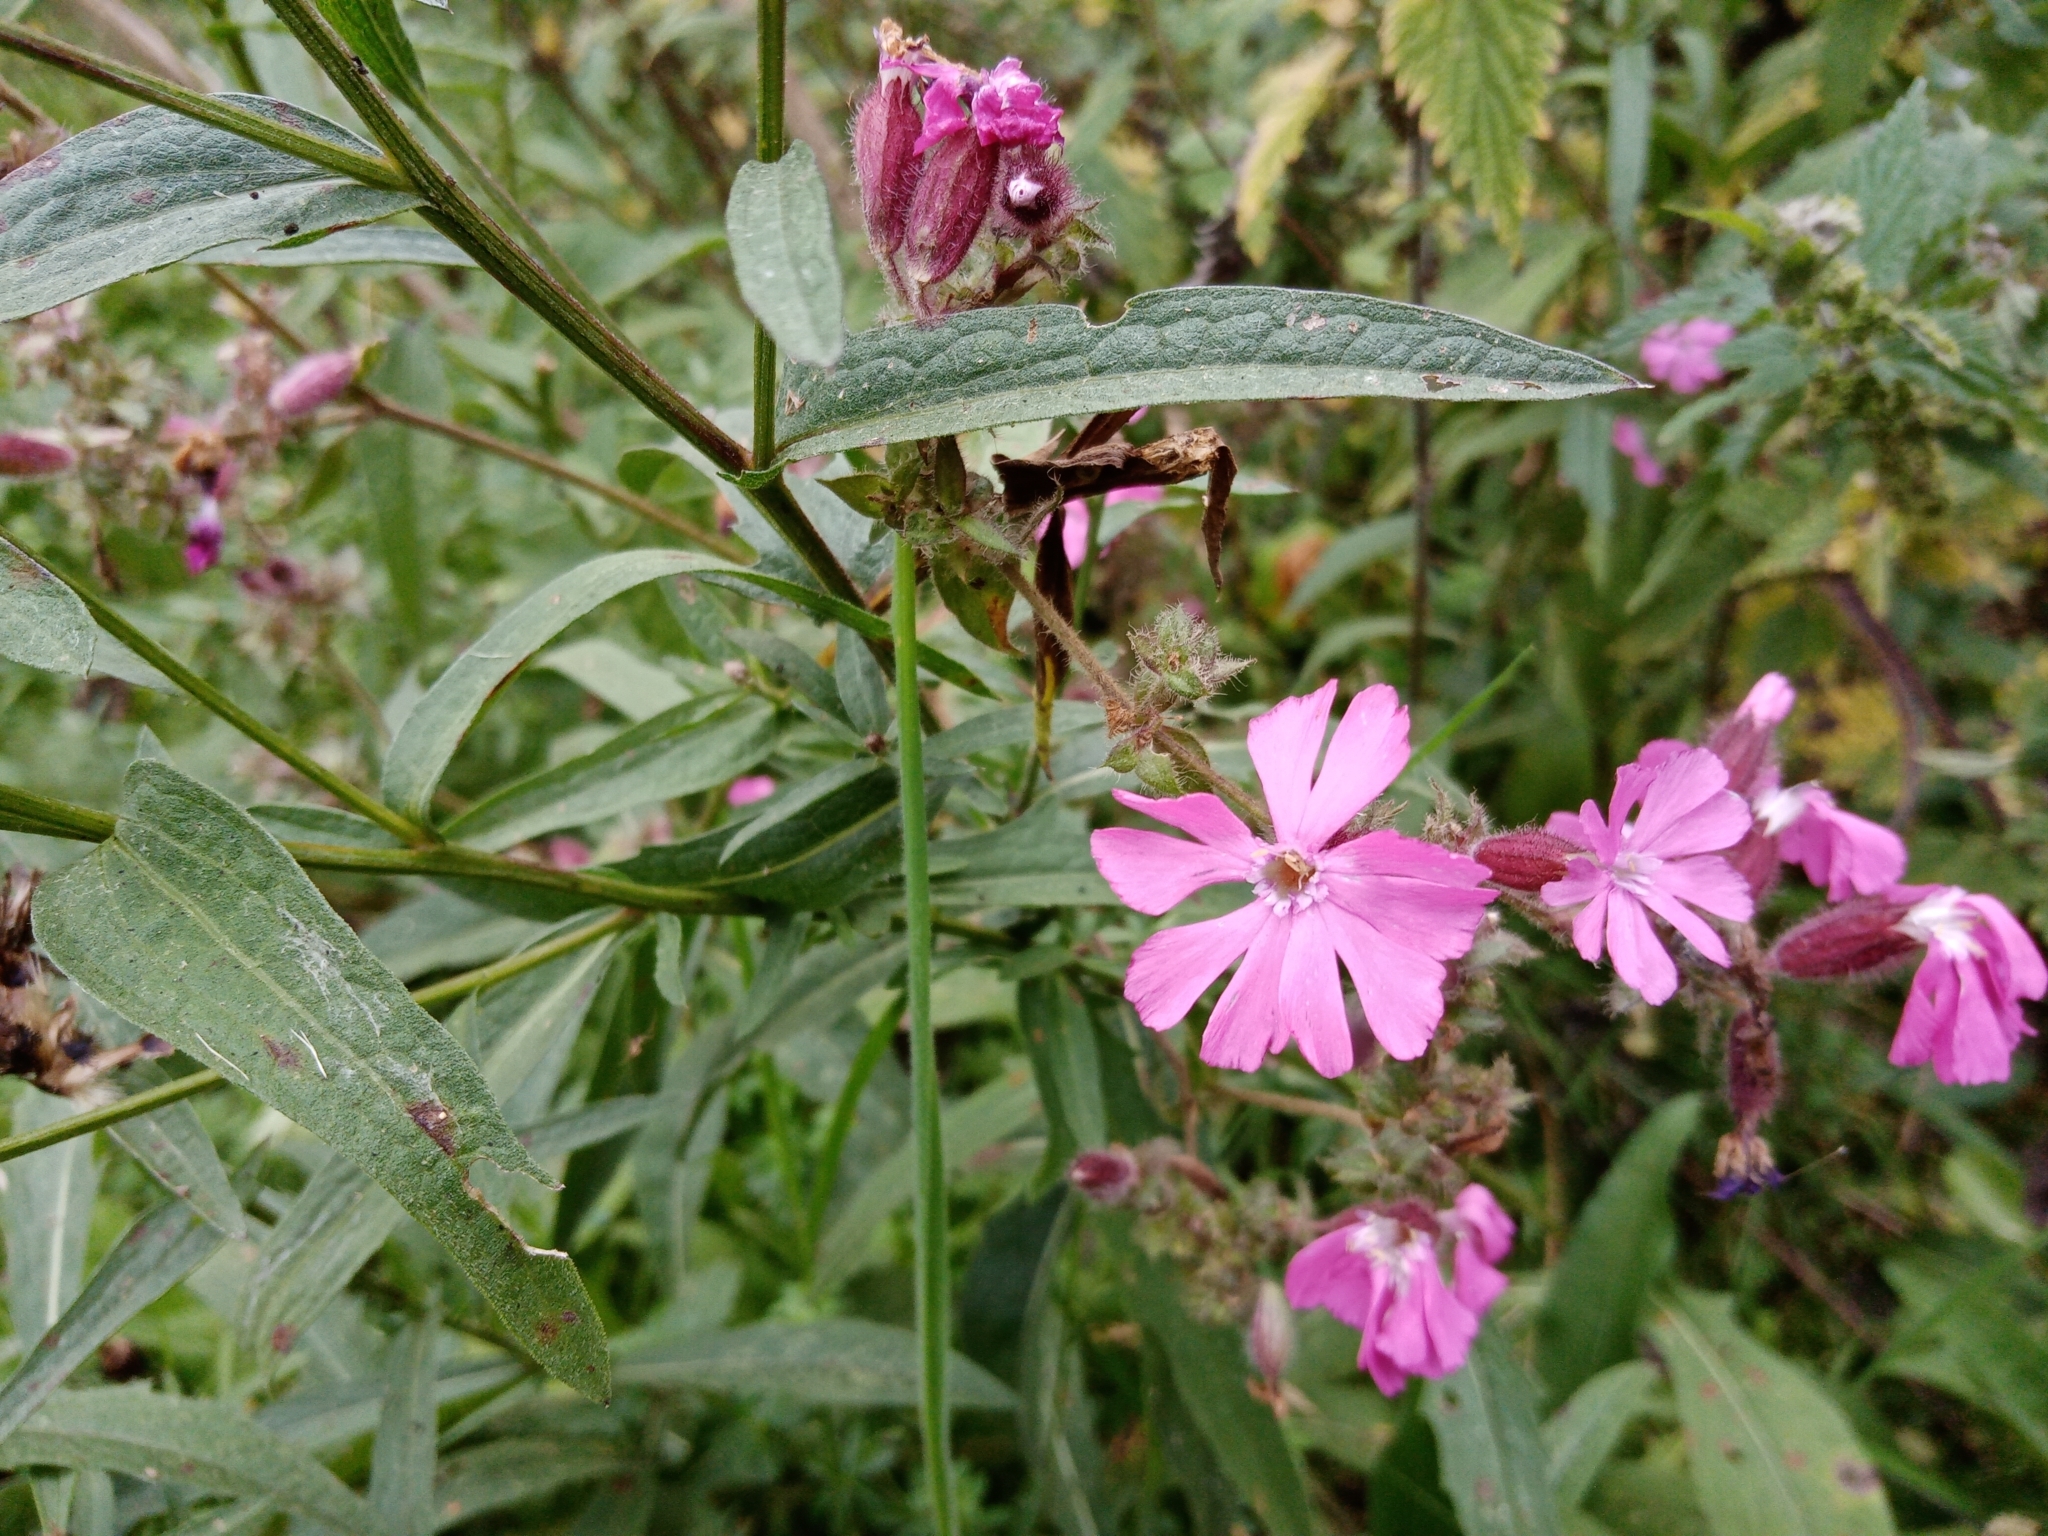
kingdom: Plantae
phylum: Tracheophyta
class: Magnoliopsida
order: Caryophyllales
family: Caryophyllaceae
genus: Silene
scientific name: Silene dioica
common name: Red campion
